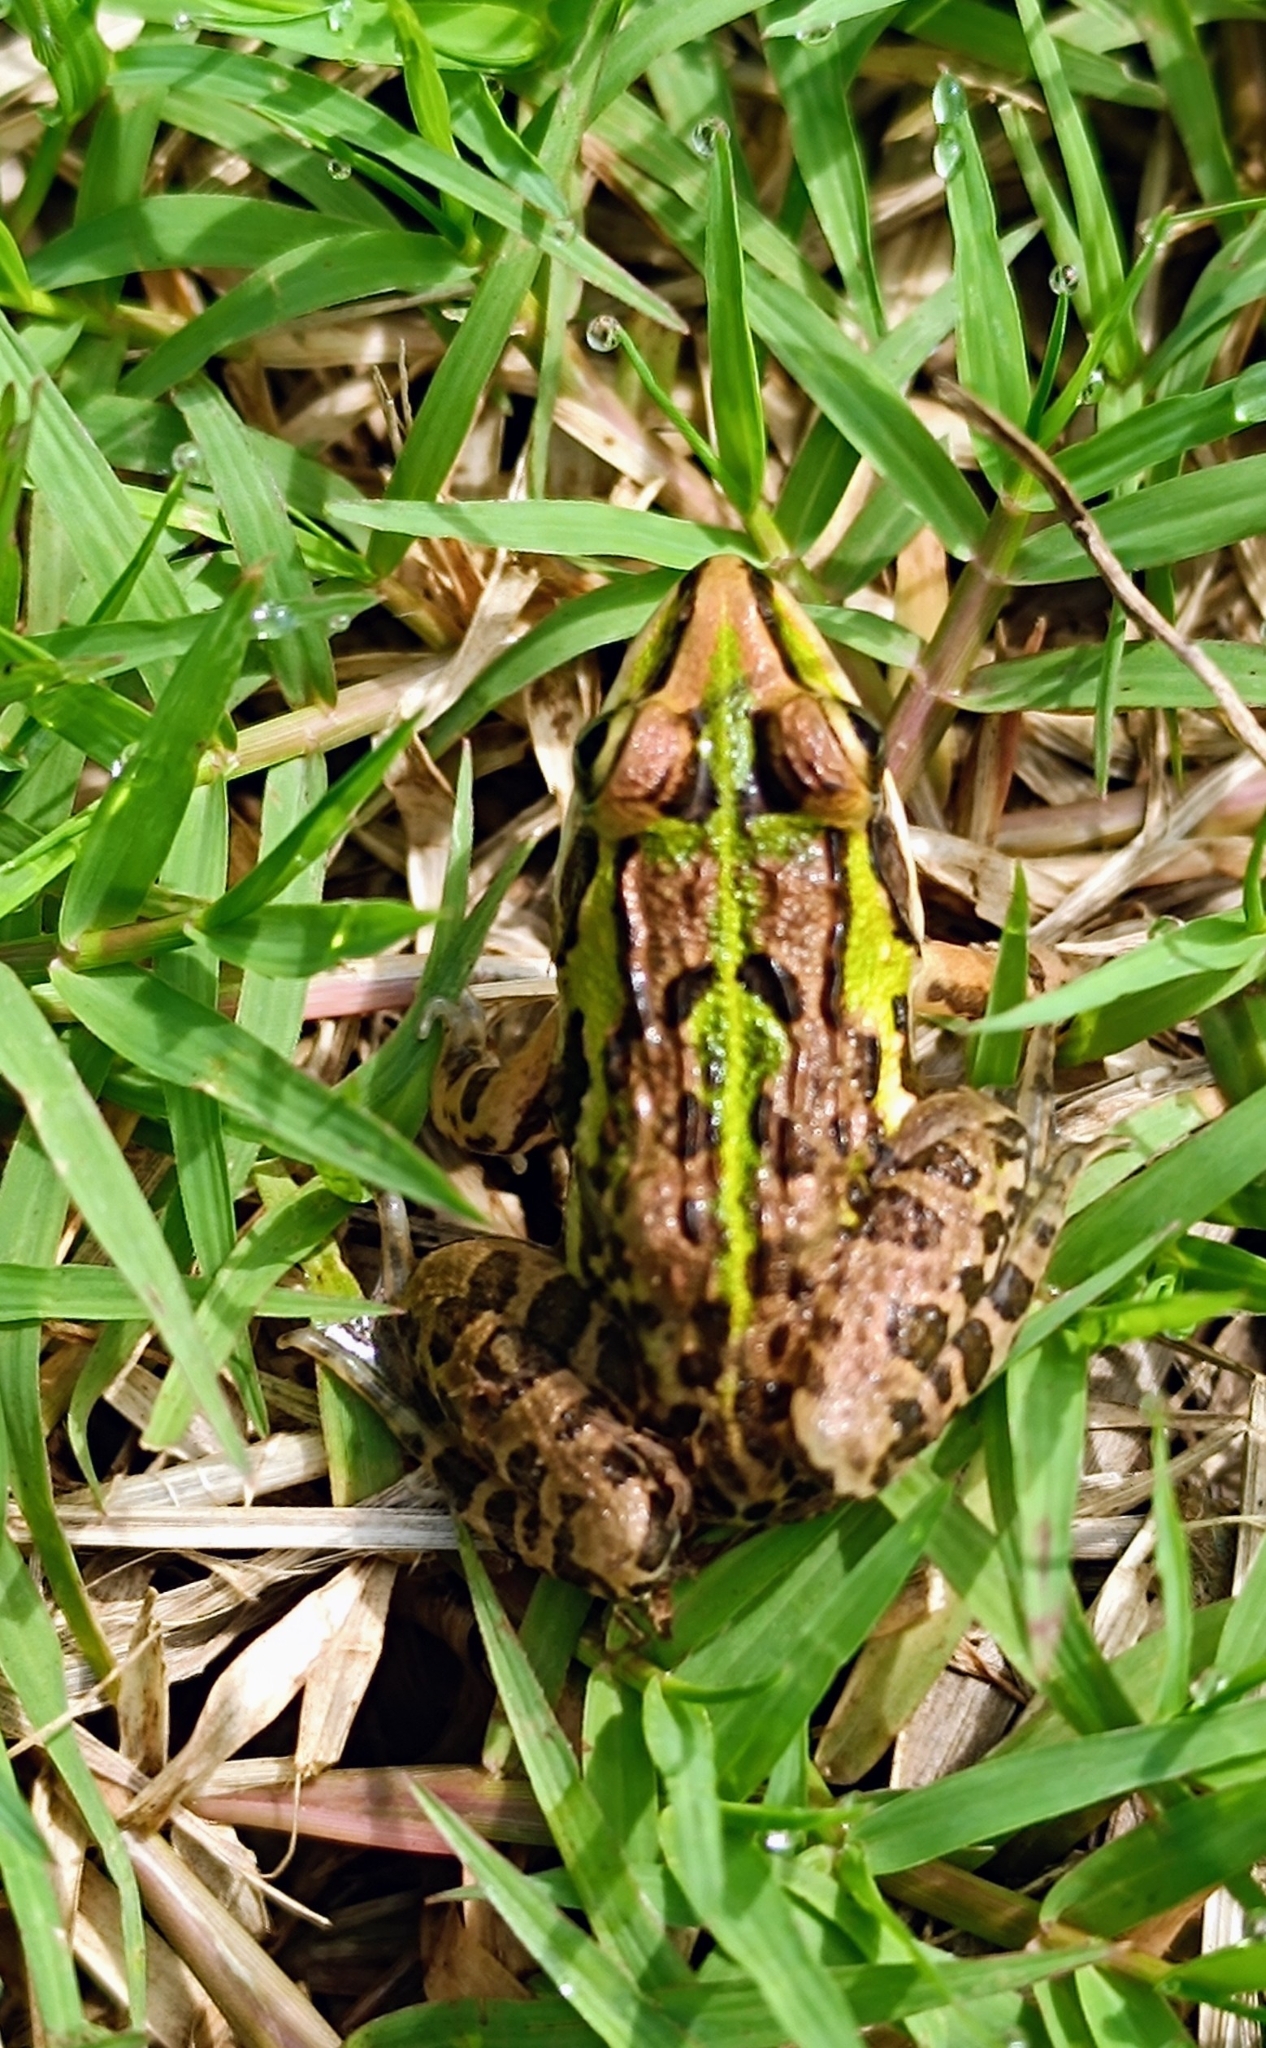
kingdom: Animalia
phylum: Chordata
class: Amphibia
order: Anura
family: Dicroglossidae
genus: Hoplobatrachus
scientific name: Hoplobatrachus tigerinus
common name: Indian bullfrog
